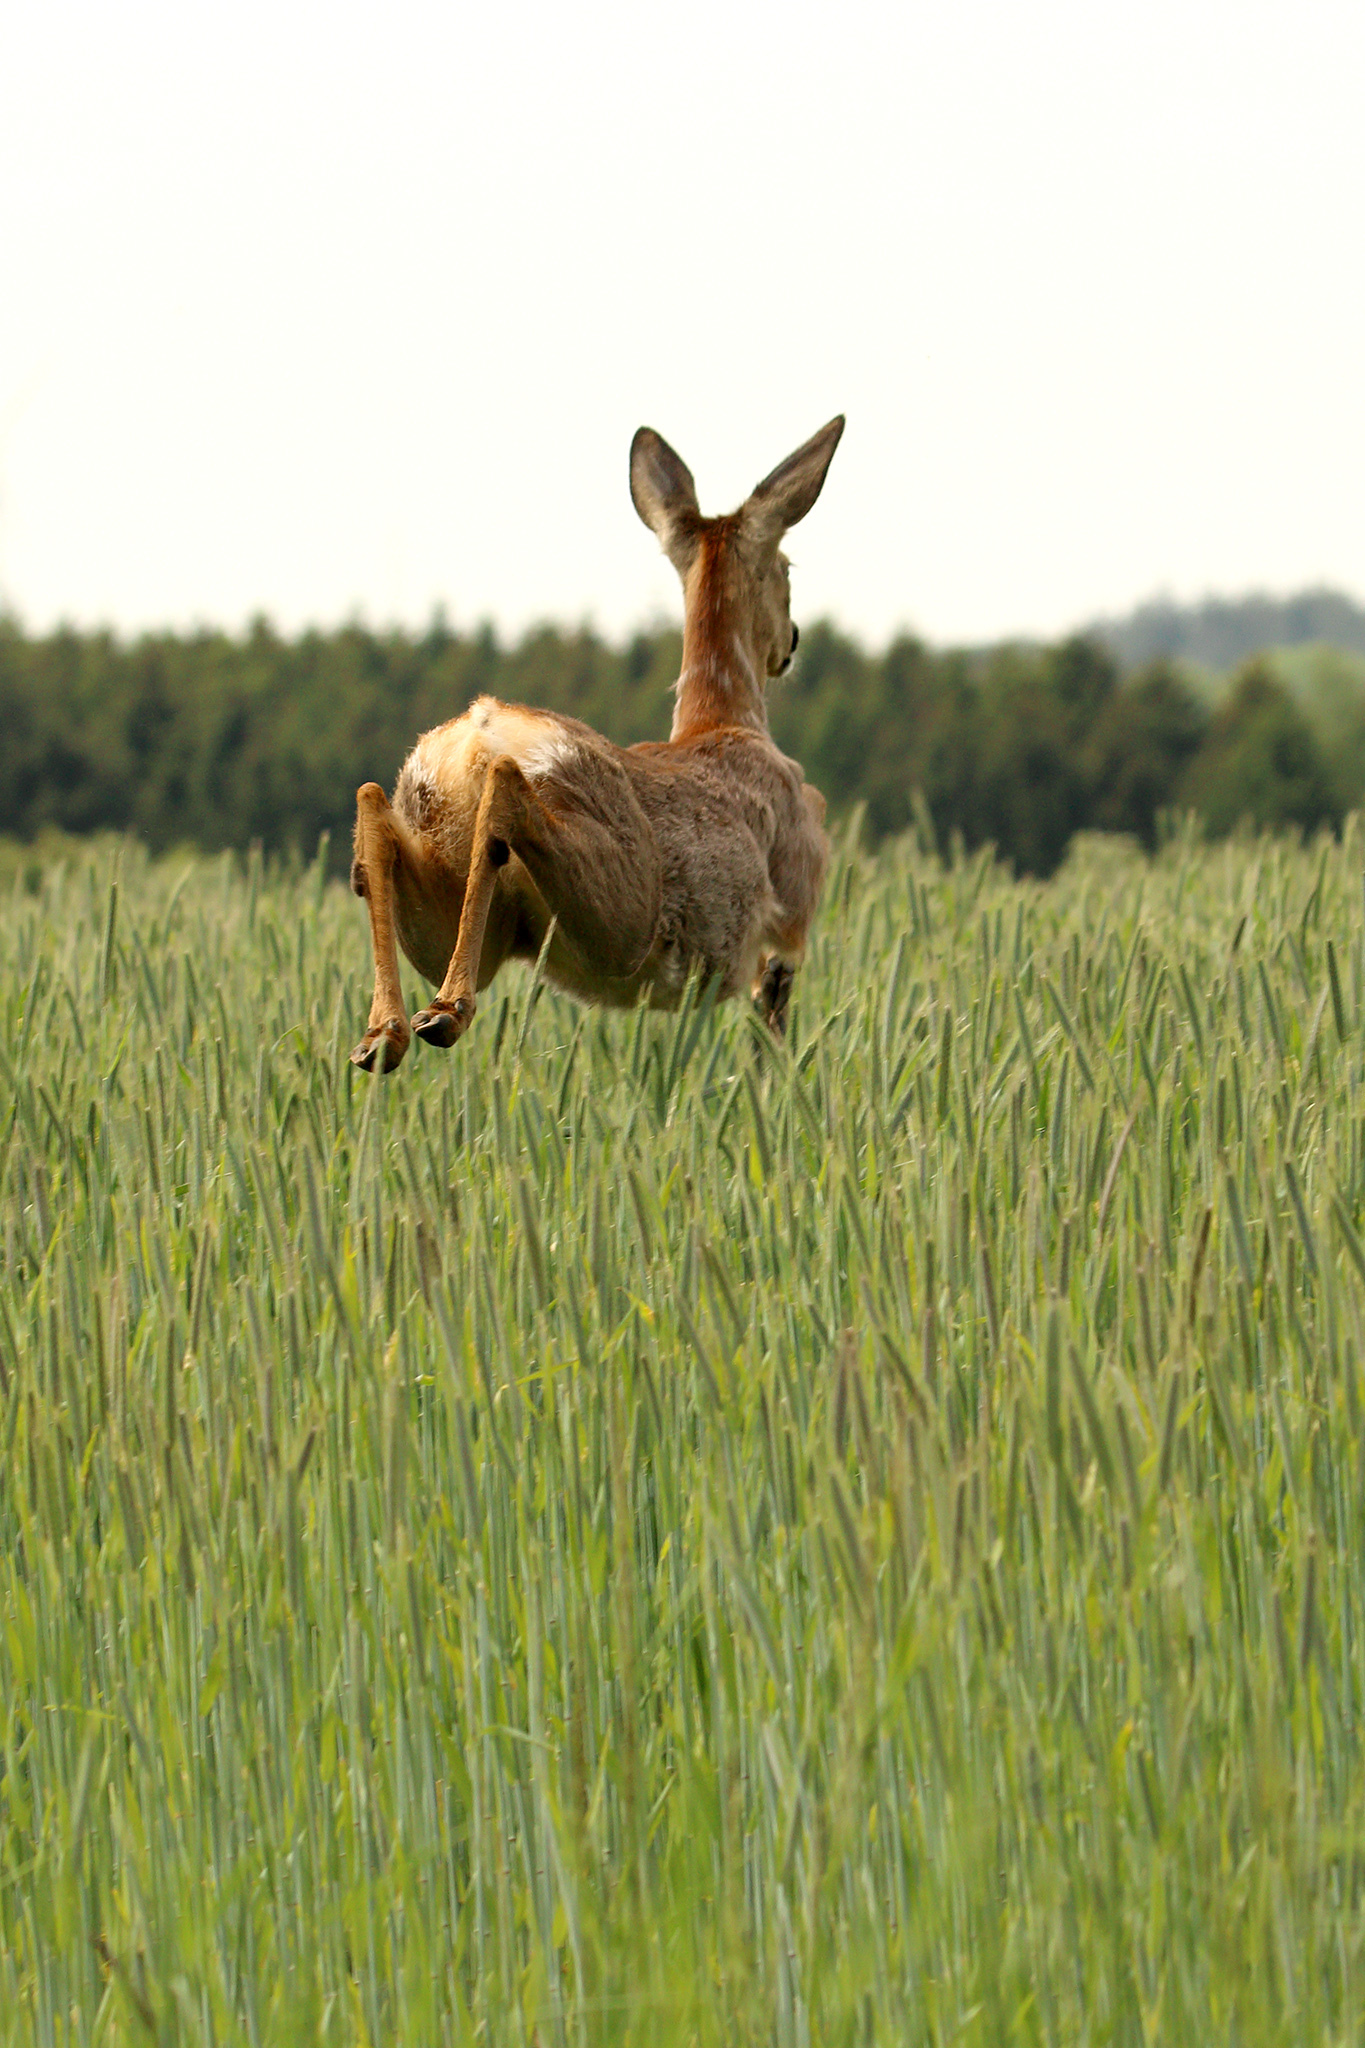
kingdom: Animalia
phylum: Chordata
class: Mammalia
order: Artiodactyla
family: Cervidae
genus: Capreolus
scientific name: Capreolus capreolus
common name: Western roe deer
